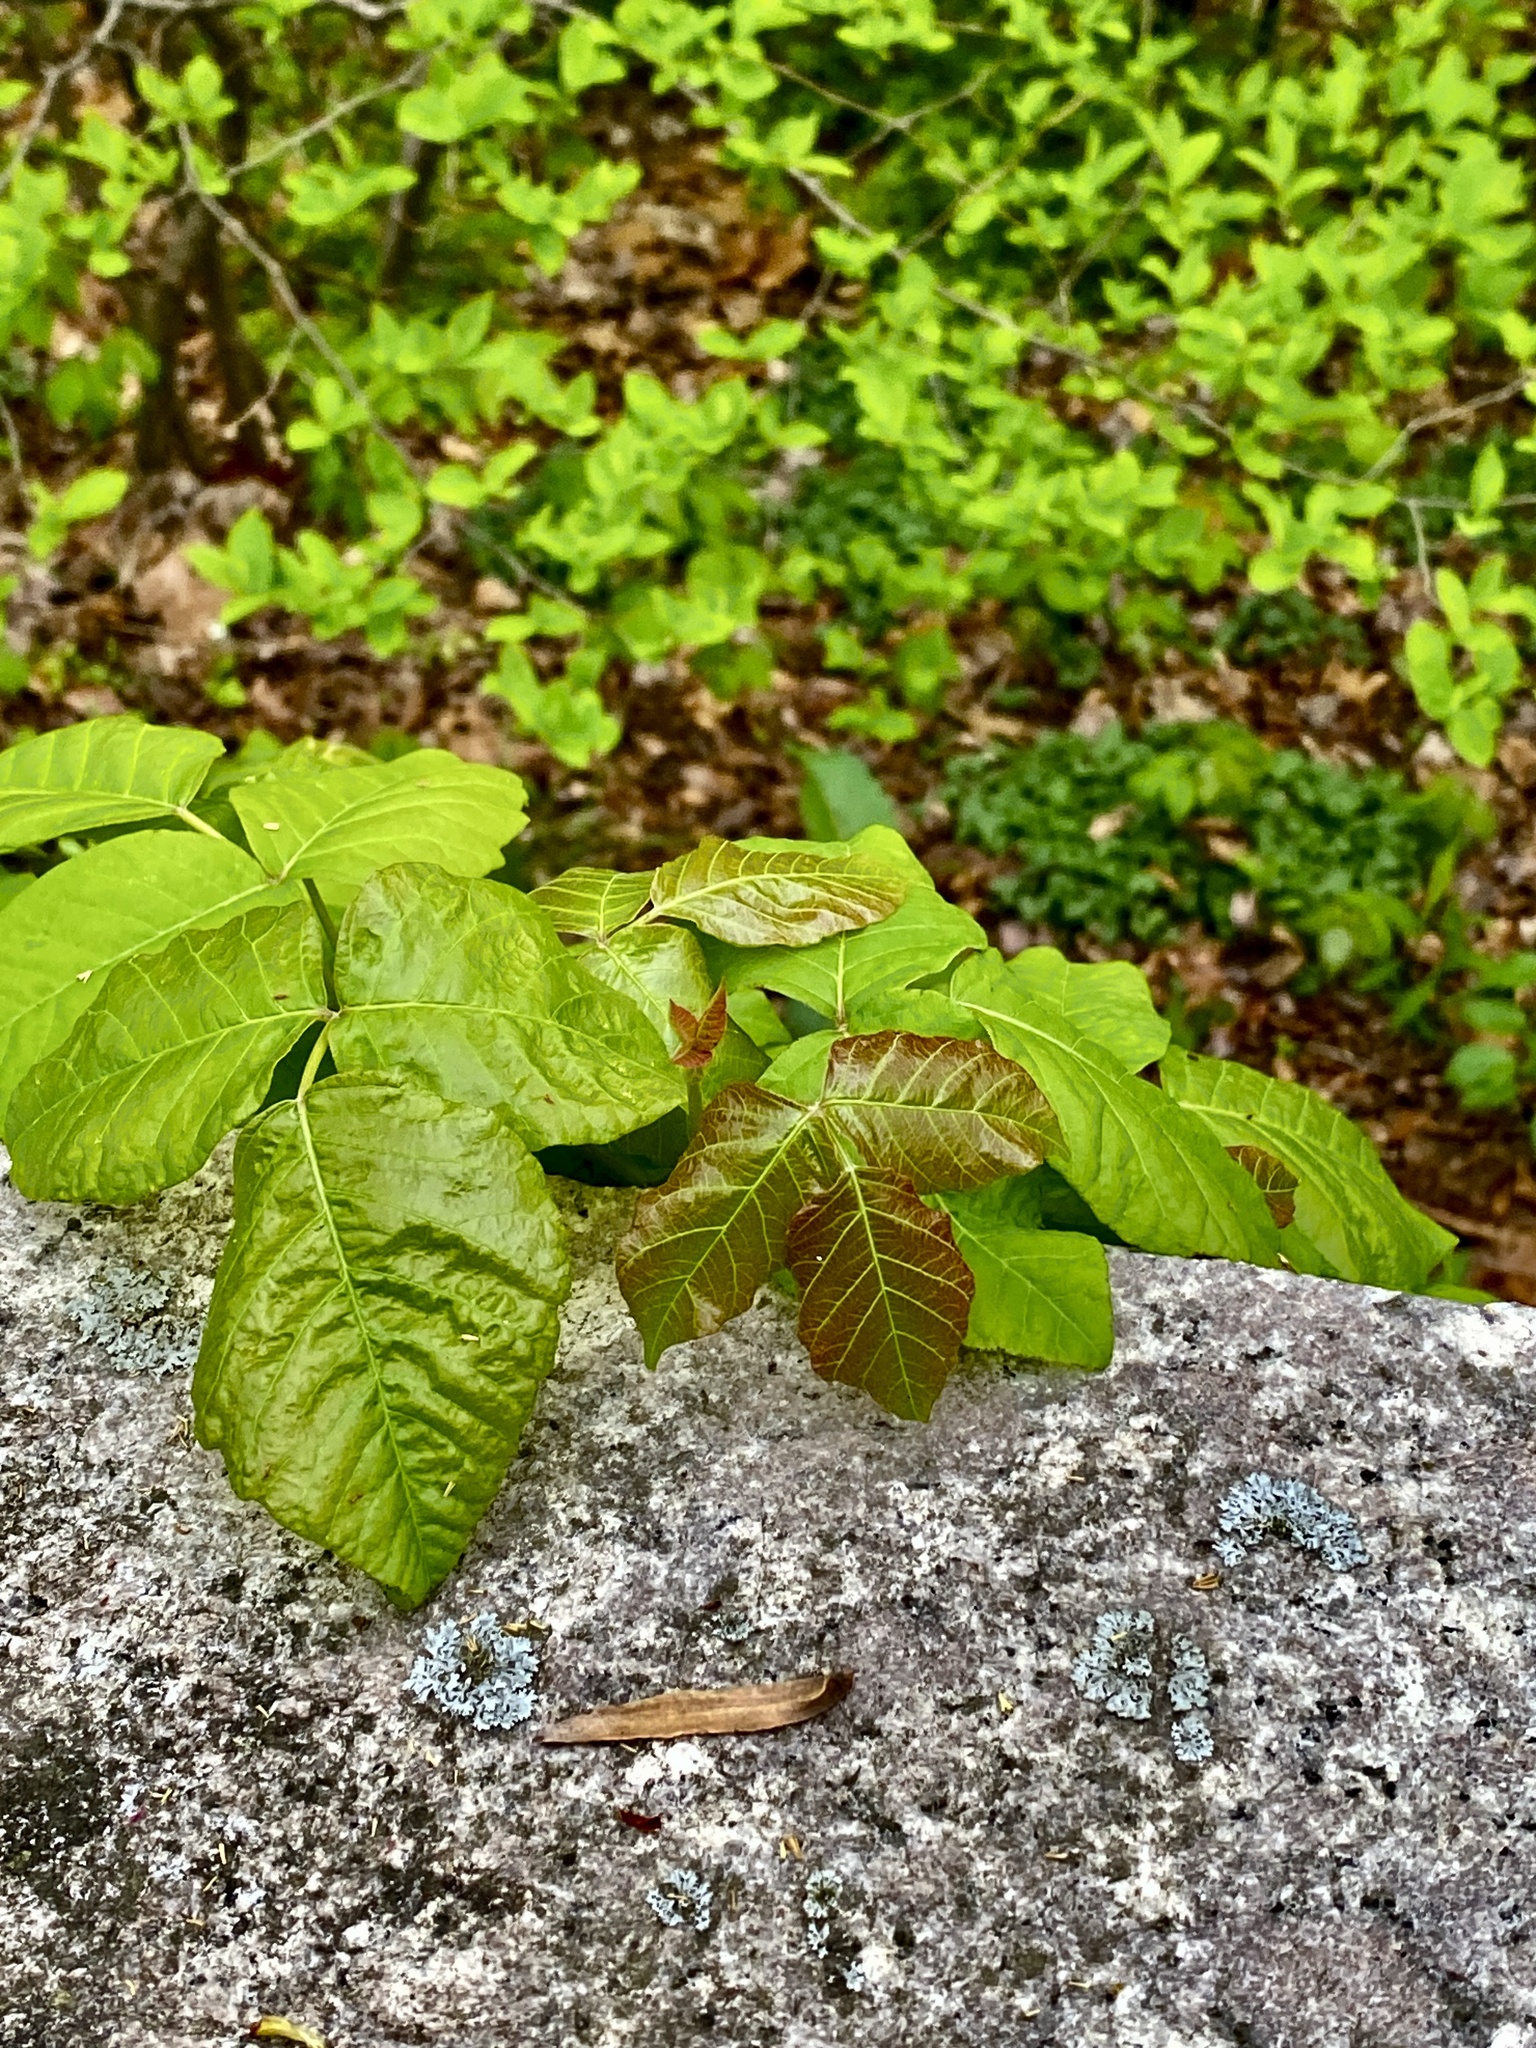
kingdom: Plantae
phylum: Tracheophyta
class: Magnoliopsida
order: Sapindales
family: Anacardiaceae
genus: Toxicodendron
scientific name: Toxicodendron radicans
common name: Poison ivy
